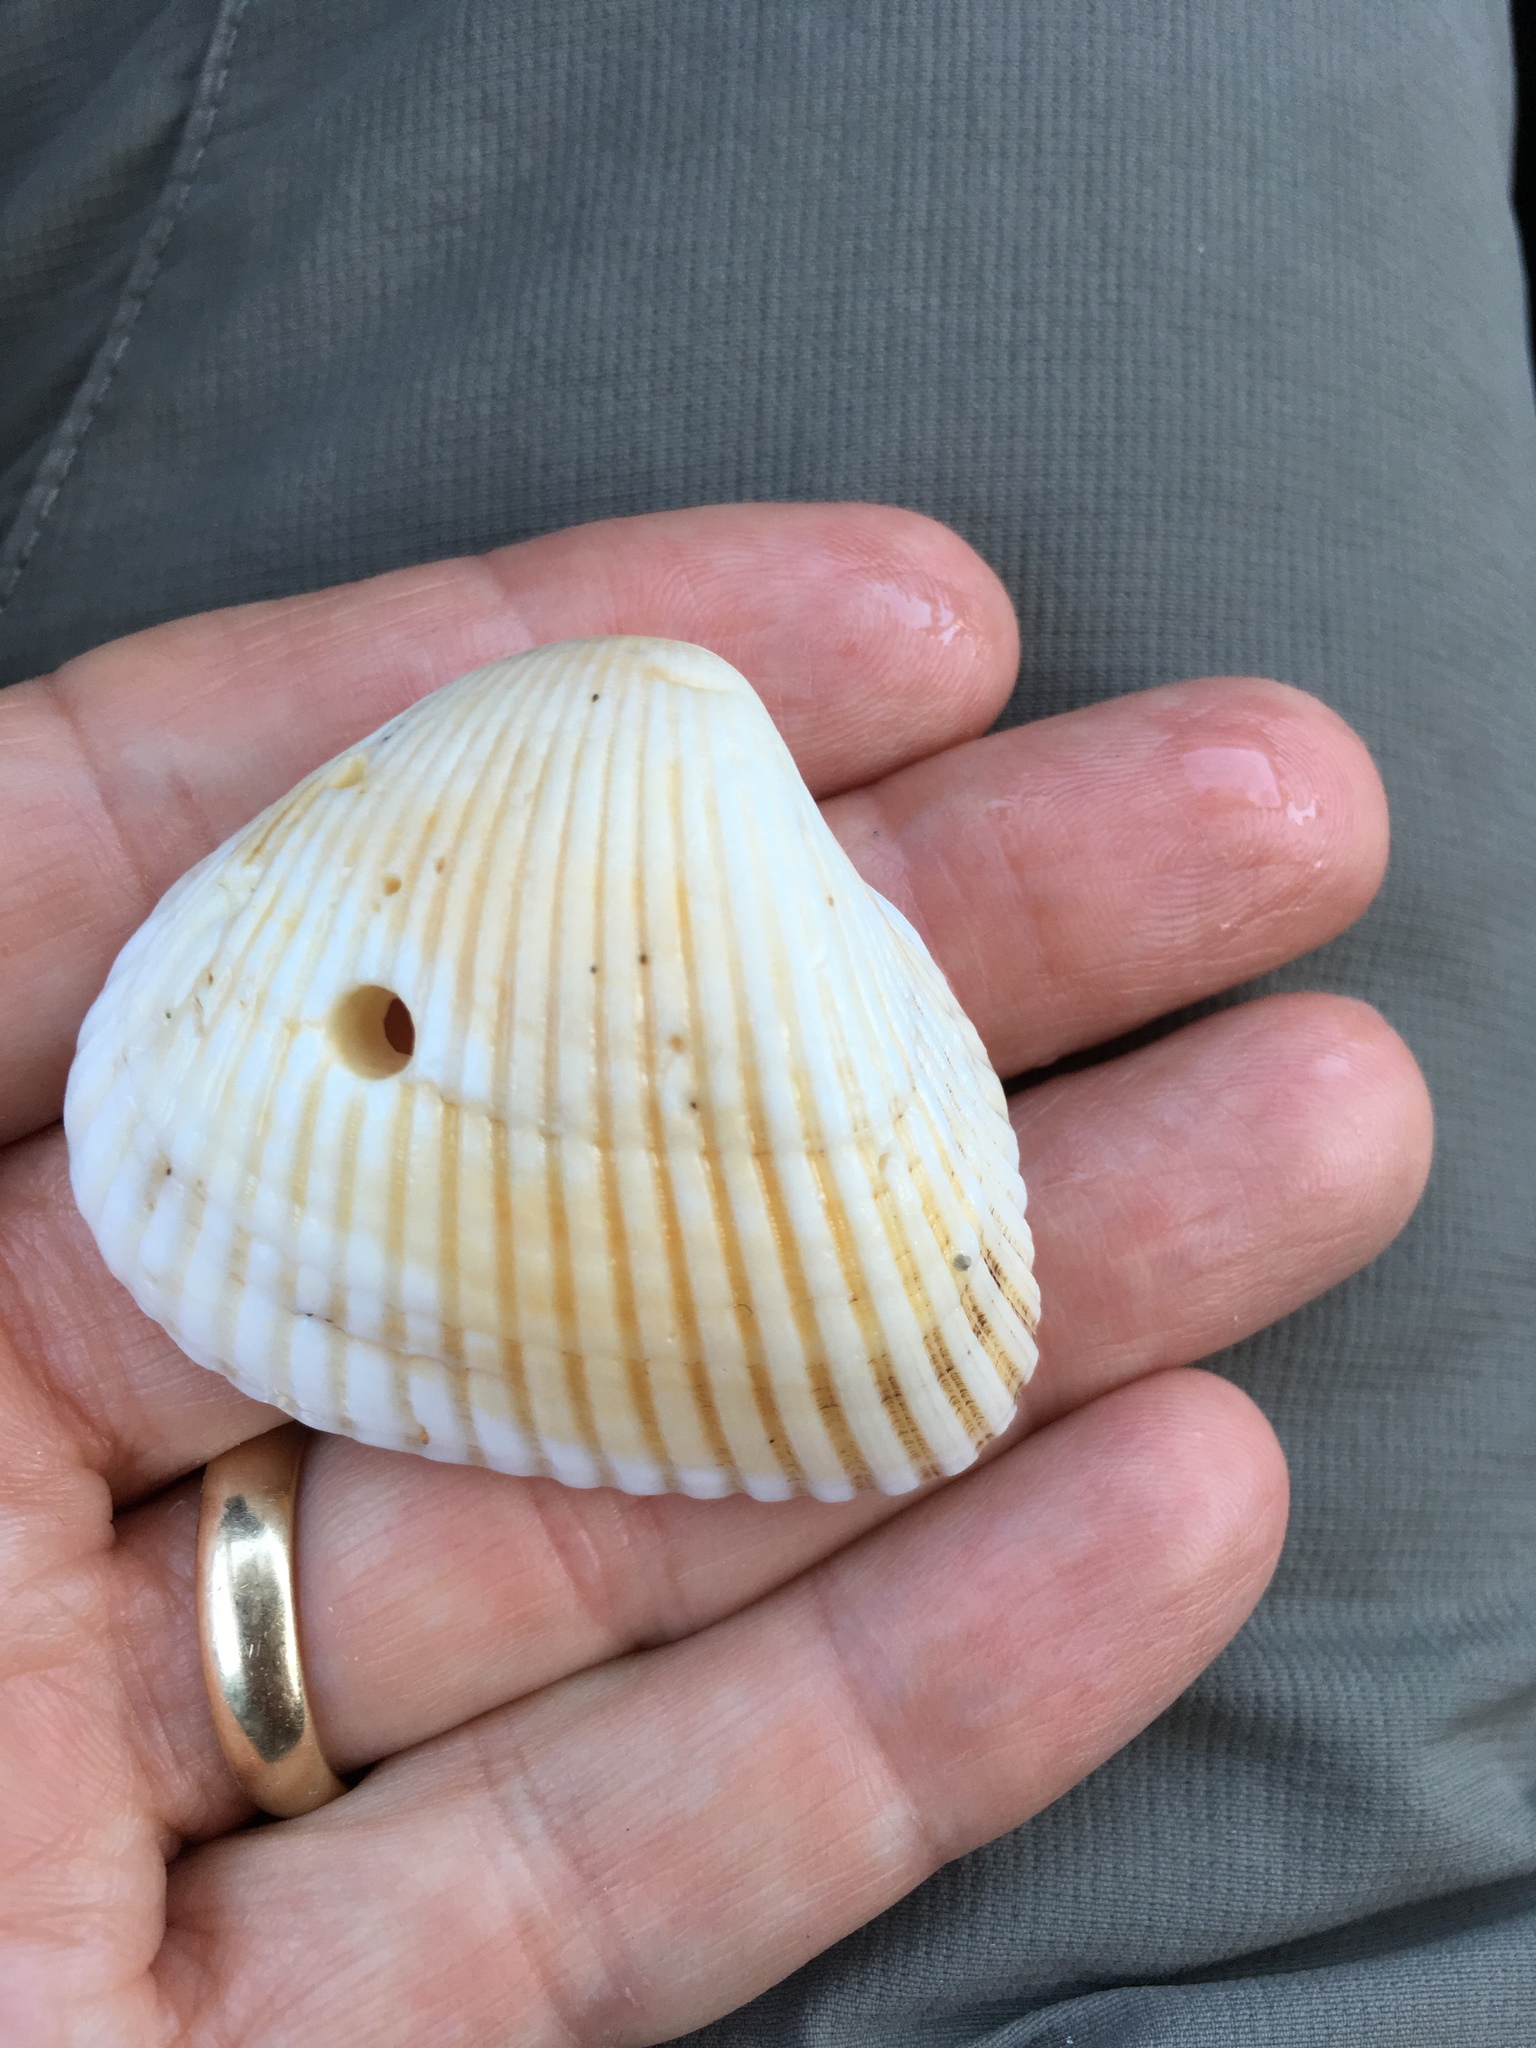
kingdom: Animalia
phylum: Mollusca
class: Bivalvia
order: Arcida
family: Noetiidae
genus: Noetia
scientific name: Noetia ponderosa
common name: Ponderous ark
